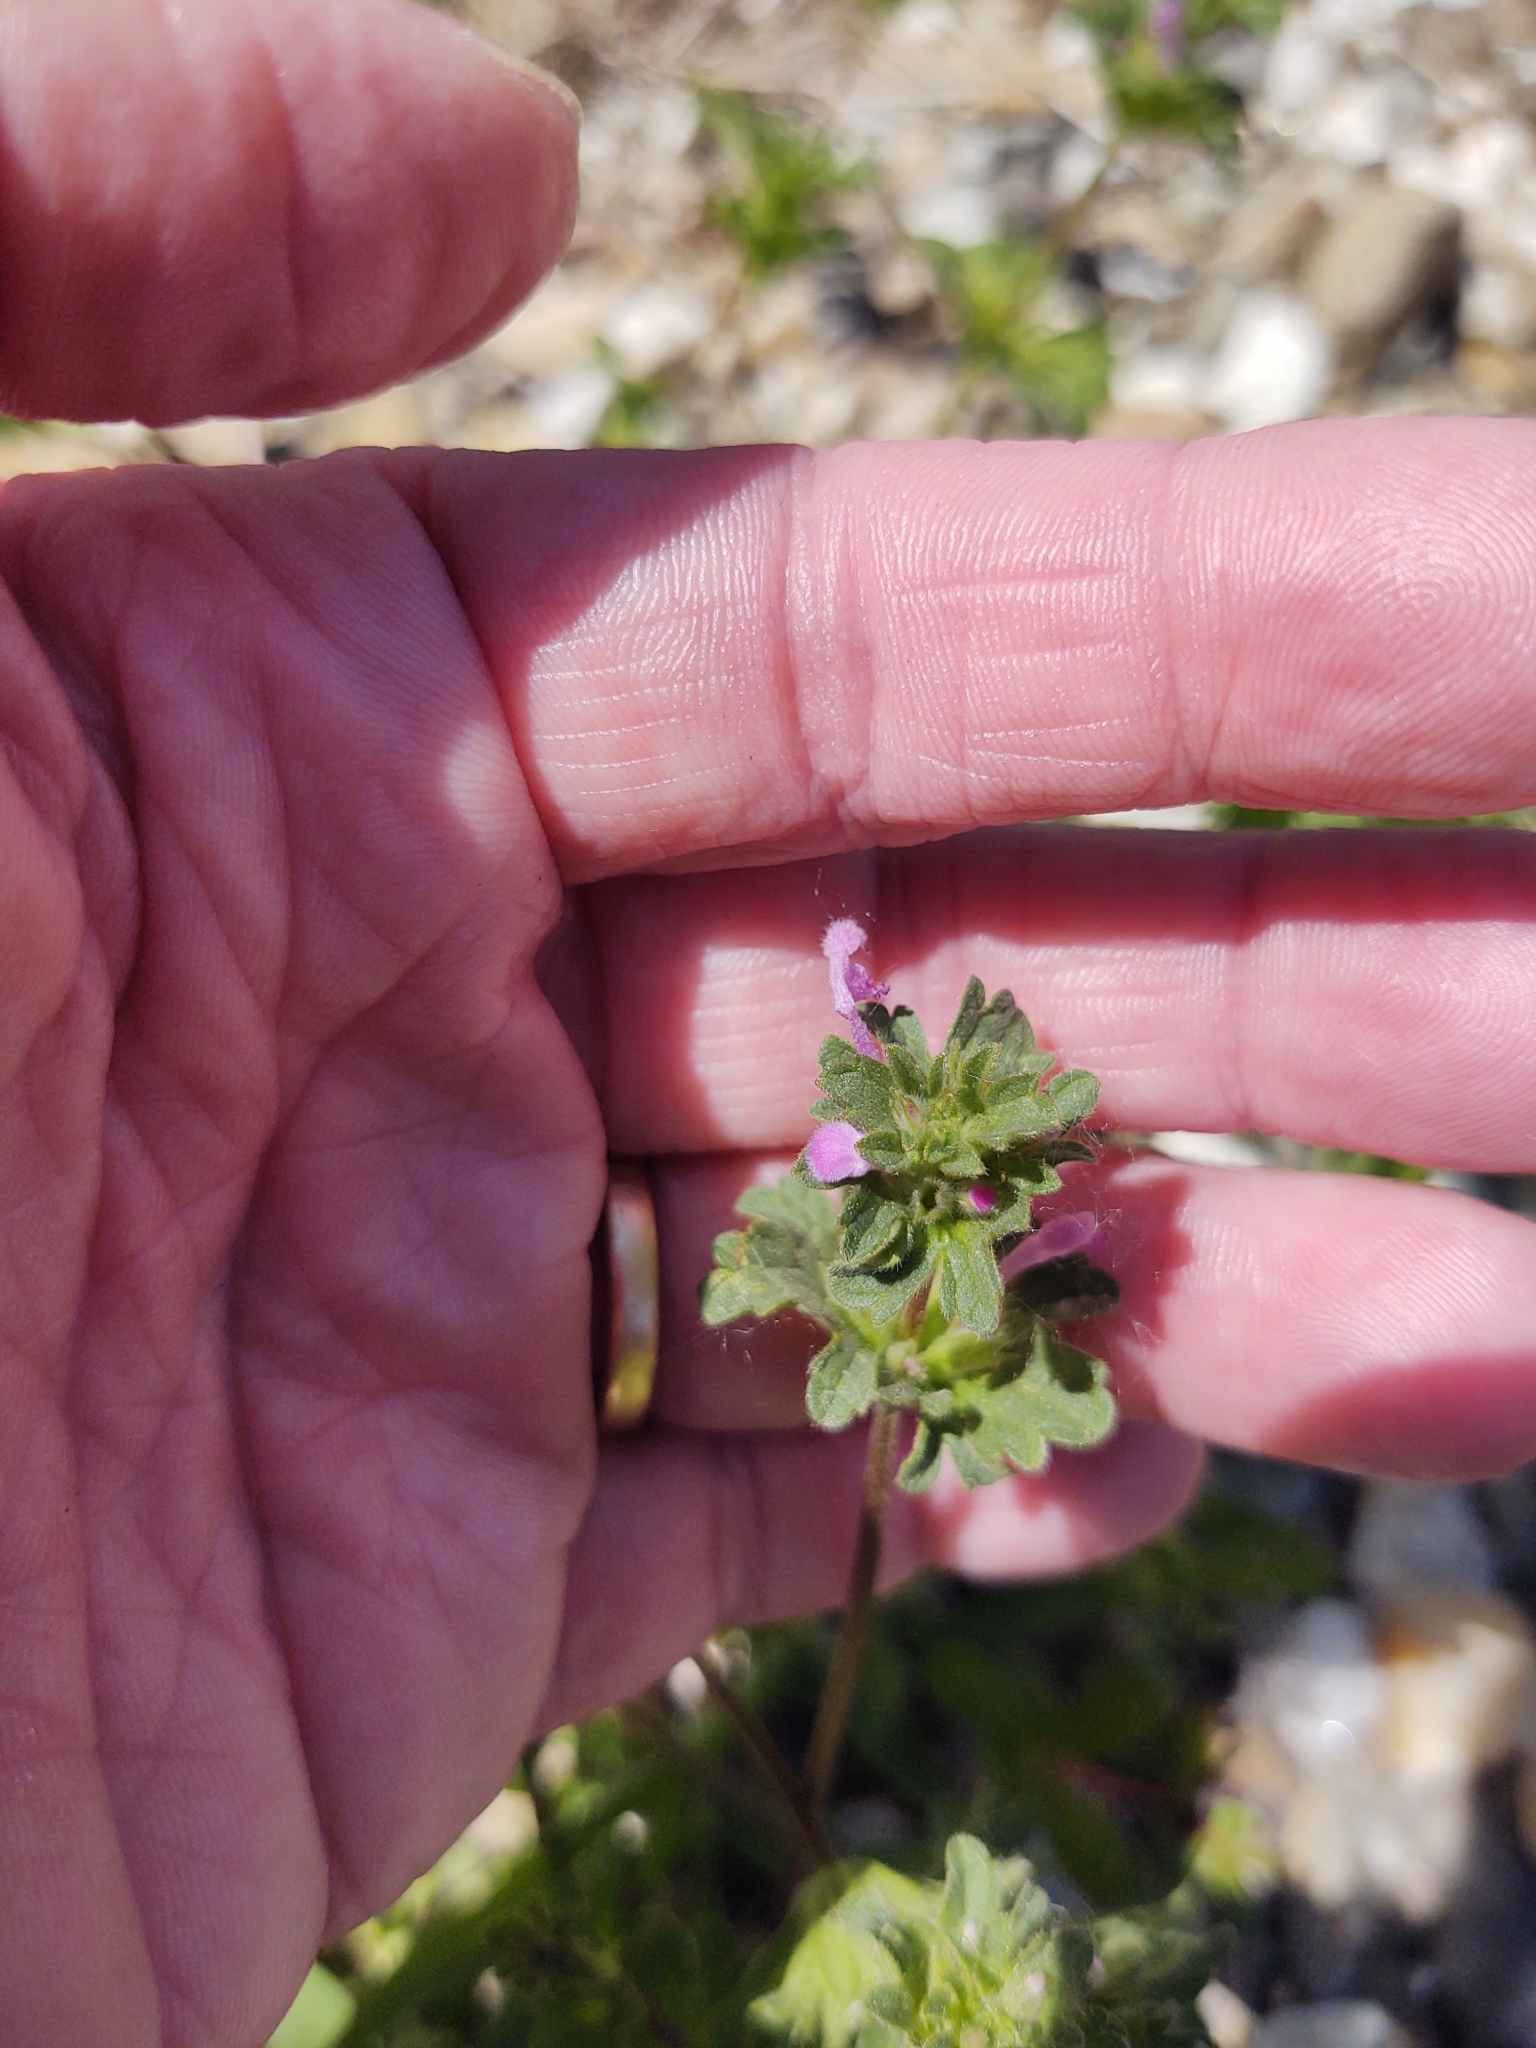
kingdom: Plantae
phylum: Tracheophyta
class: Magnoliopsida
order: Lamiales
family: Lamiaceae
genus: Lamium
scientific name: Lamium amplexicaule
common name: Henbit dead-nettle
